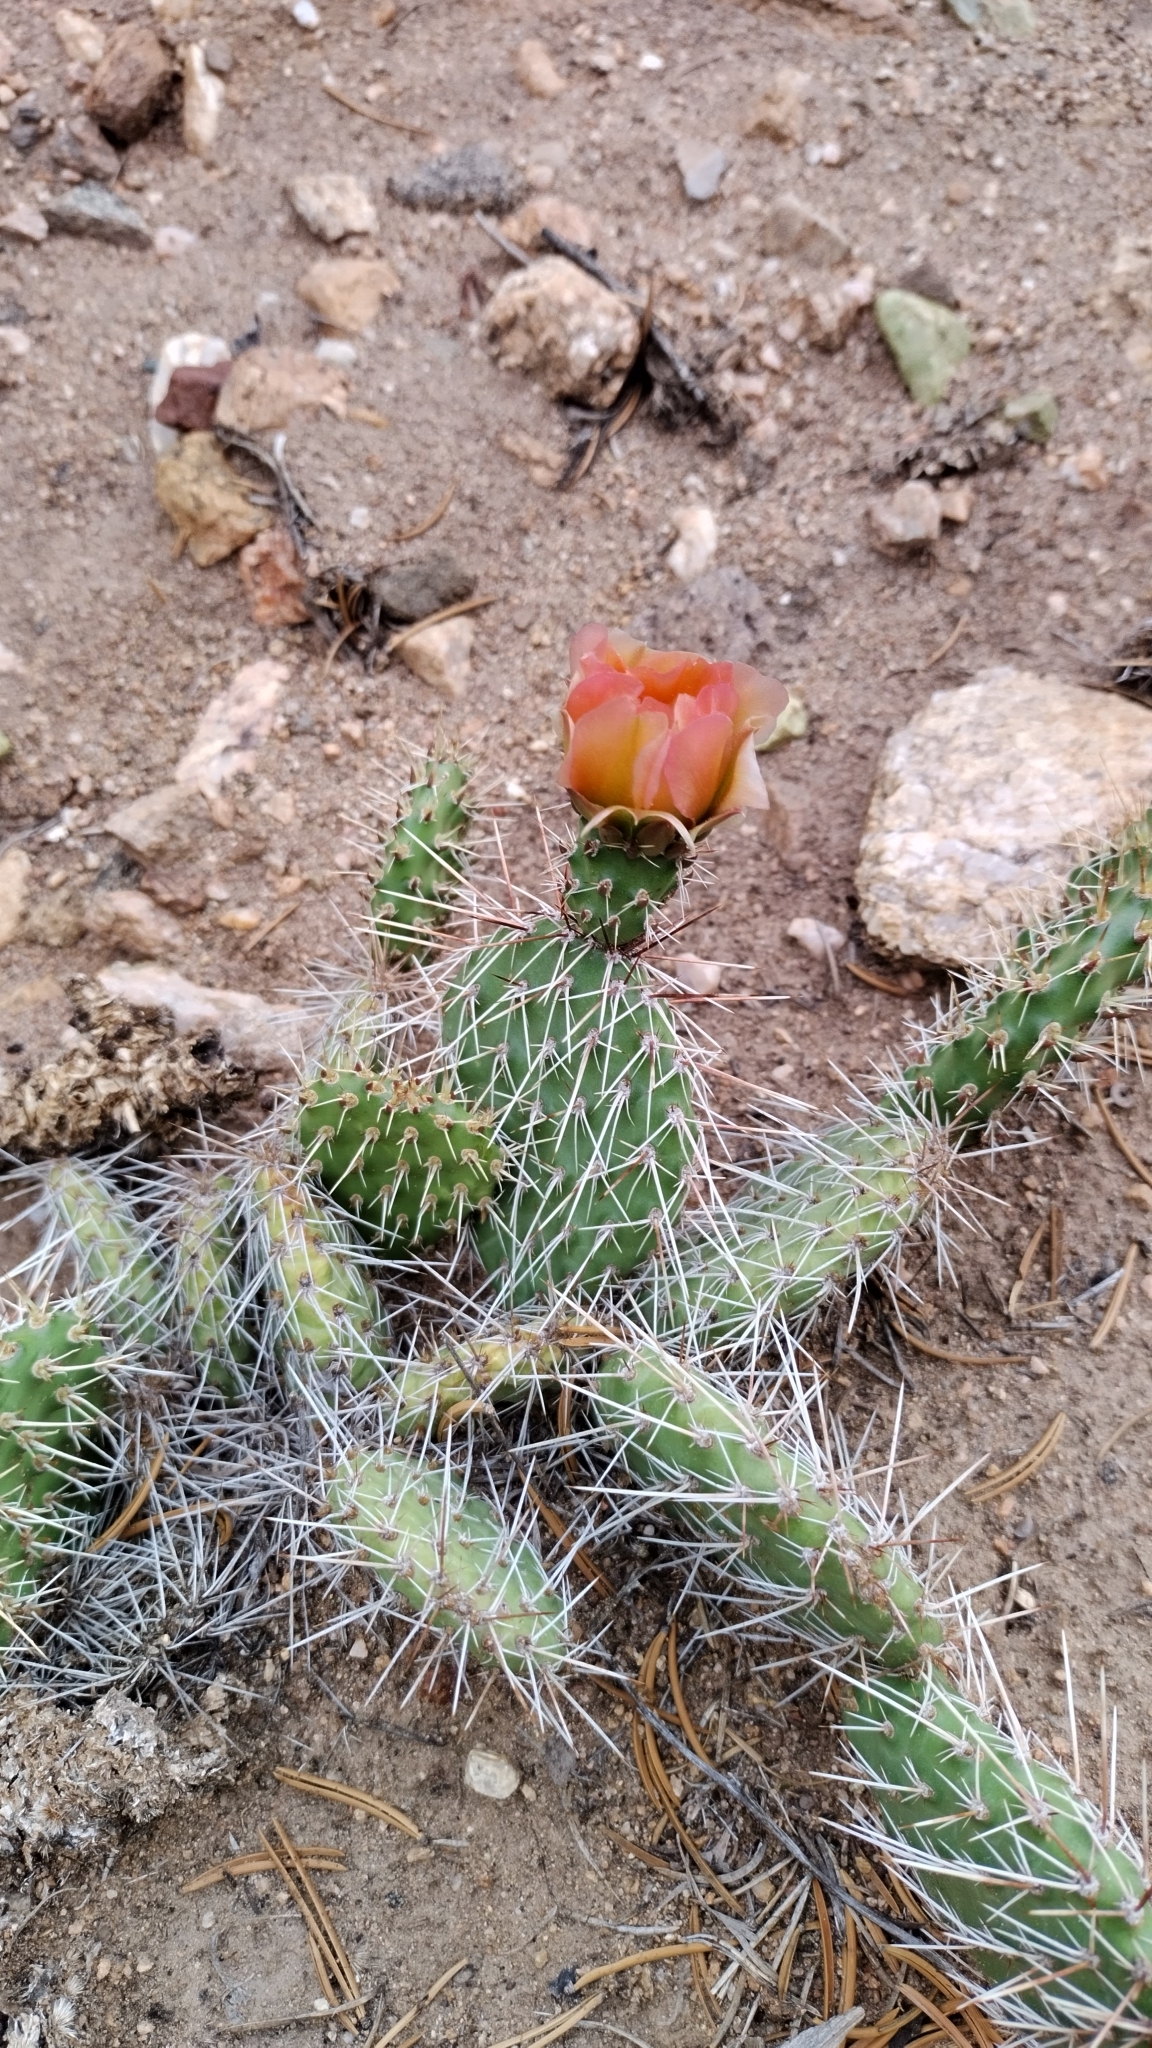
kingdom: Plantae
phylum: Tracheophyta
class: Magnoliopsida
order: Caryophyllales
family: Cactaceae
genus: Opuntia
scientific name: Opuntia polyacantha
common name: Plains prickly-pear
